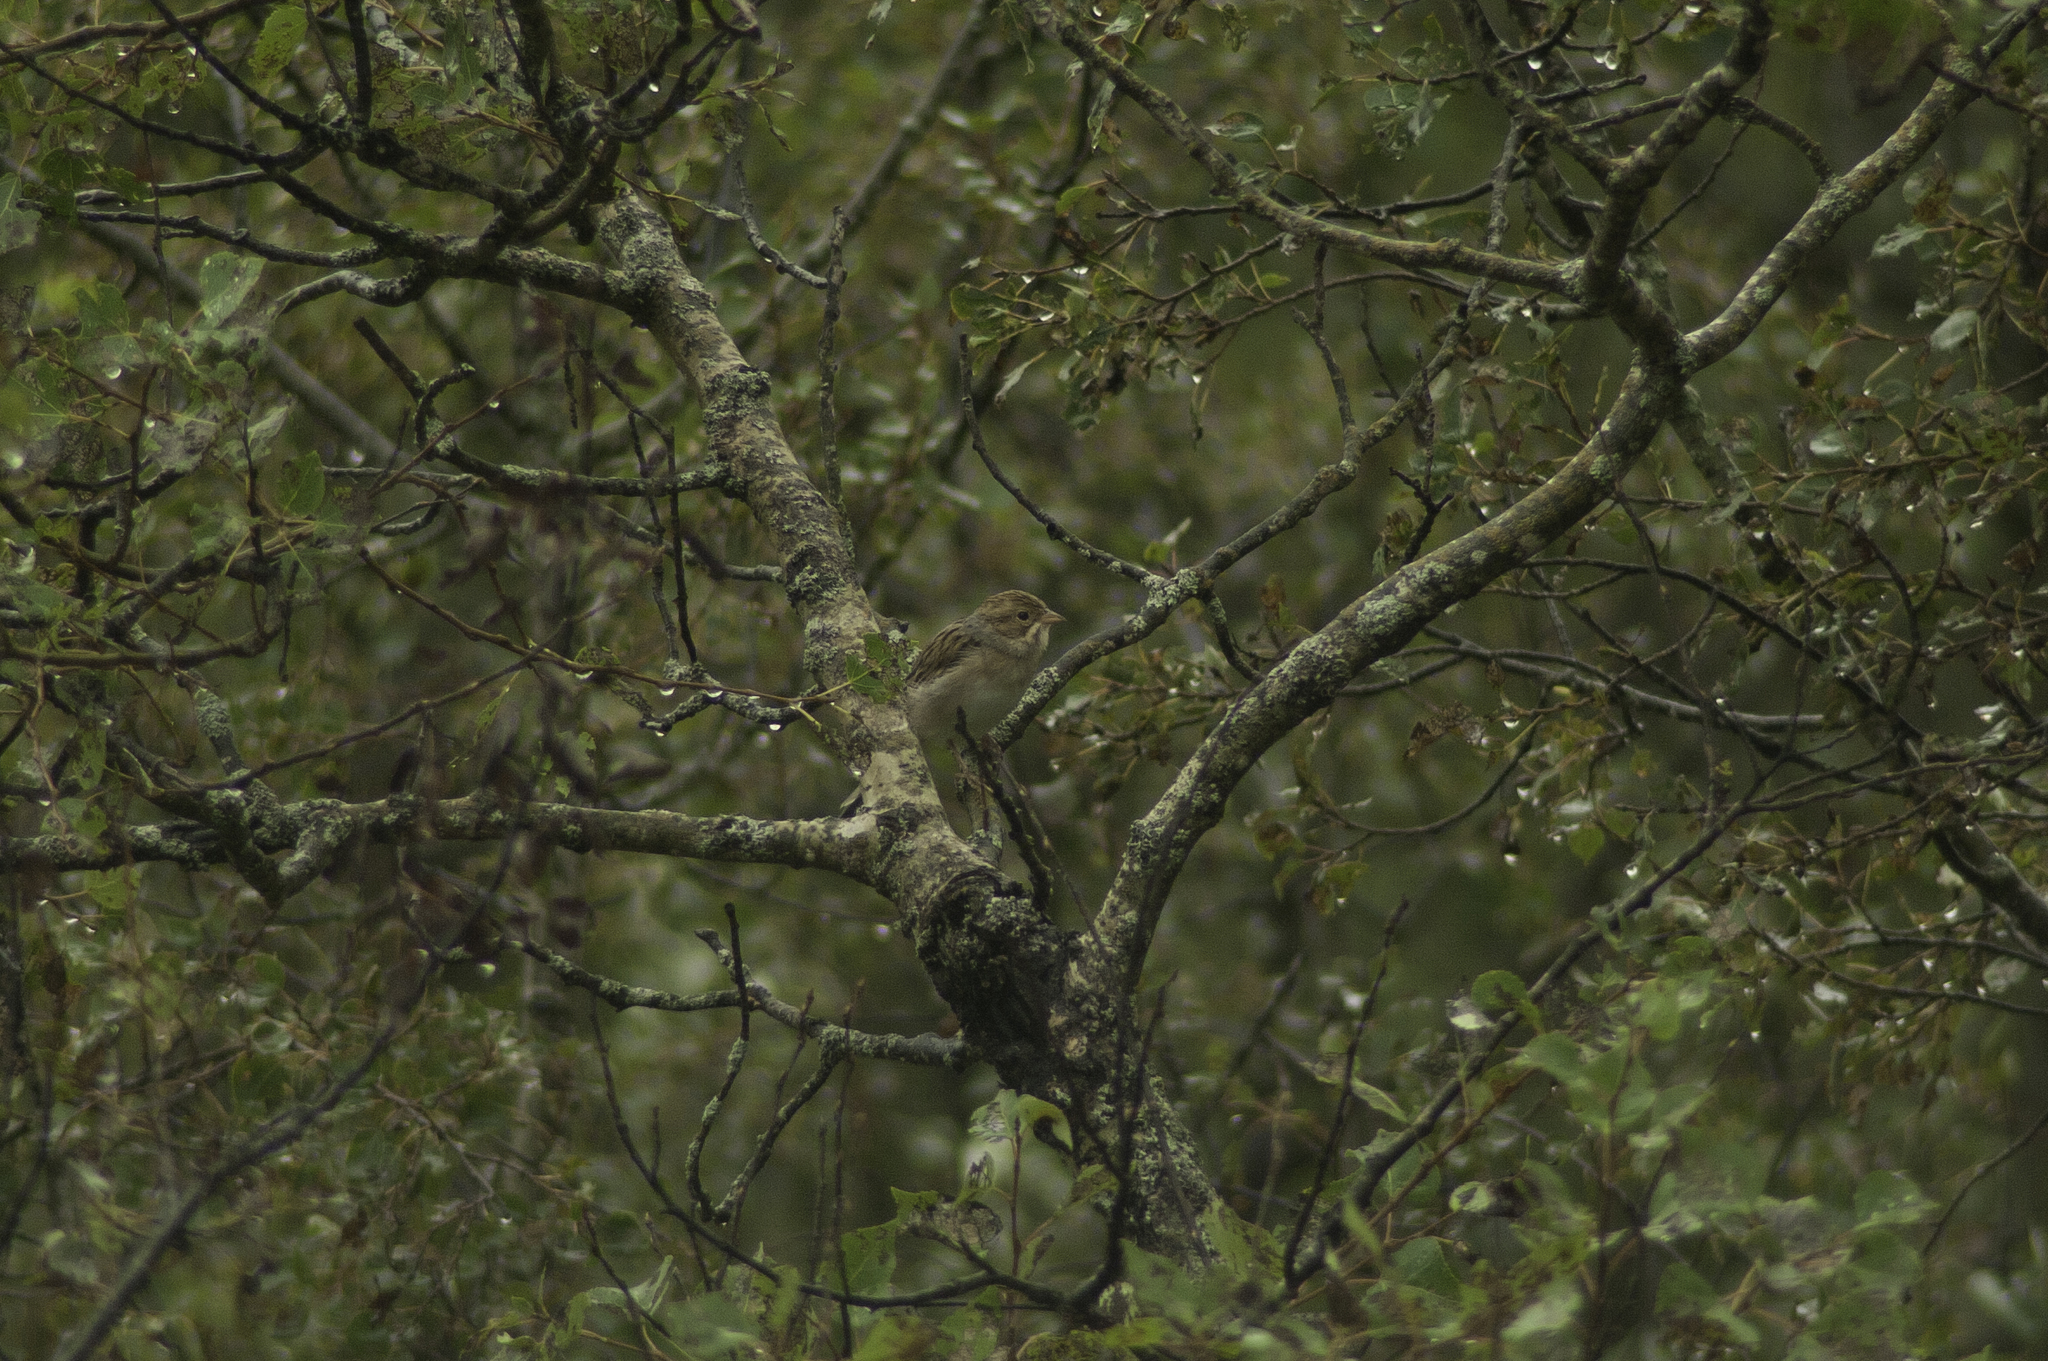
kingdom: Animalia
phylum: Chordata
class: Aves
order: Passeriformes
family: Passerellidae
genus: Spizella
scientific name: Spizella pallida
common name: Clay-colored sparrow
